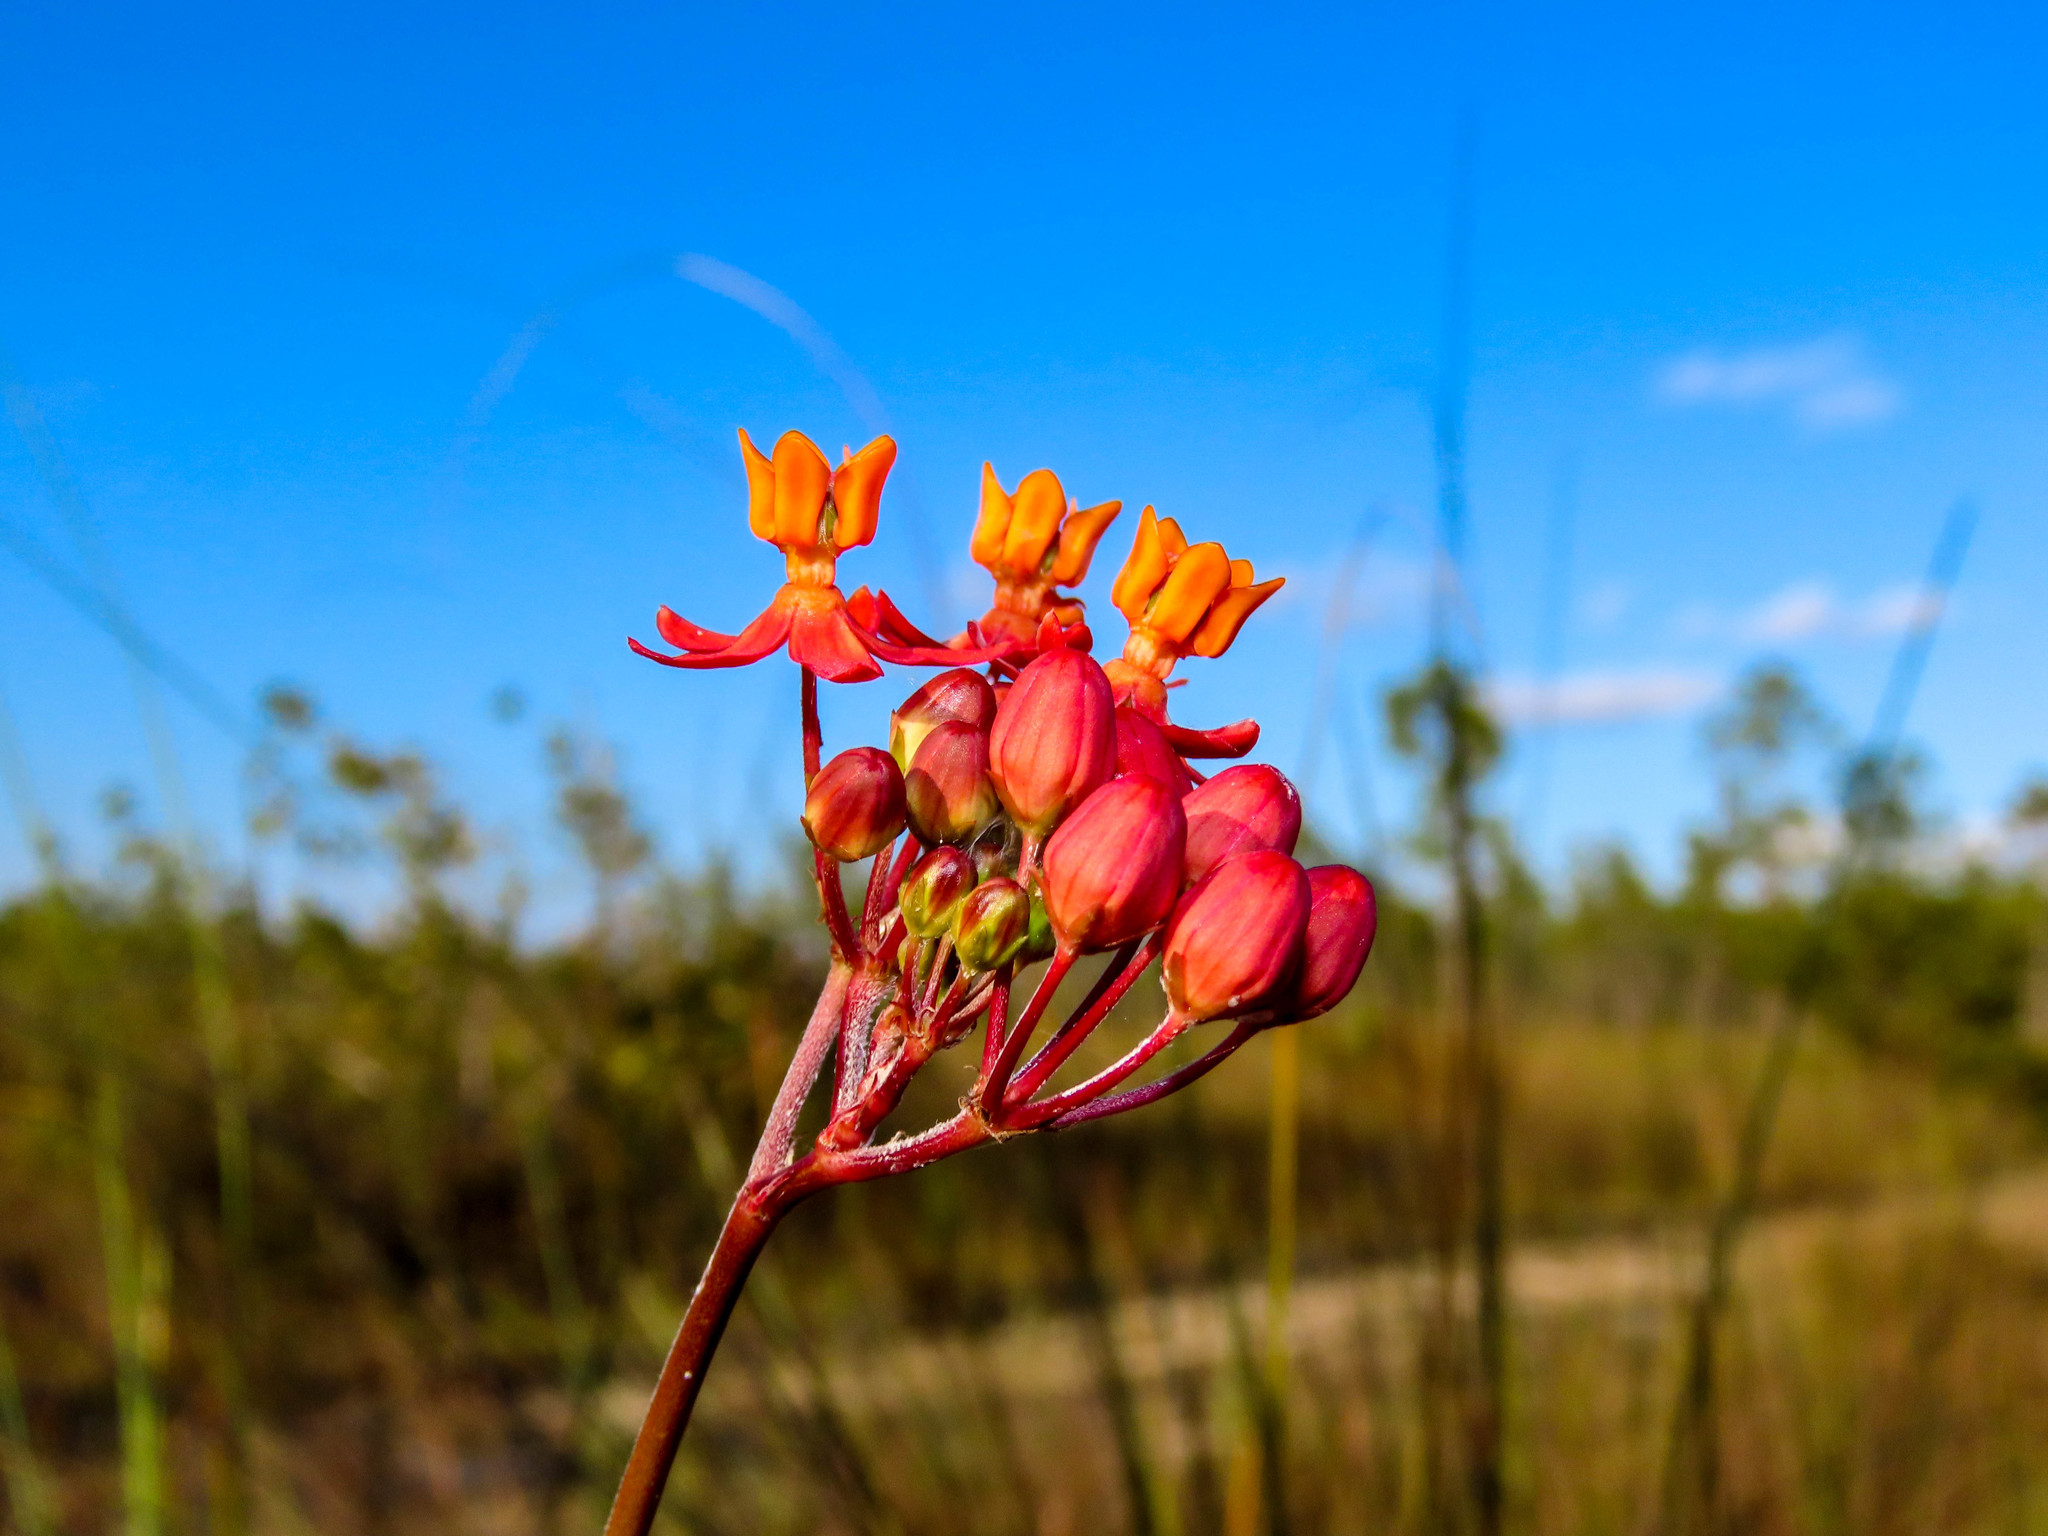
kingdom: Plantae
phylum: Tracheophyta
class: Magnoliopsida
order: Gentianales
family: Apocynaceae
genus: Asclepias
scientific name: Asclepias lanceolata
